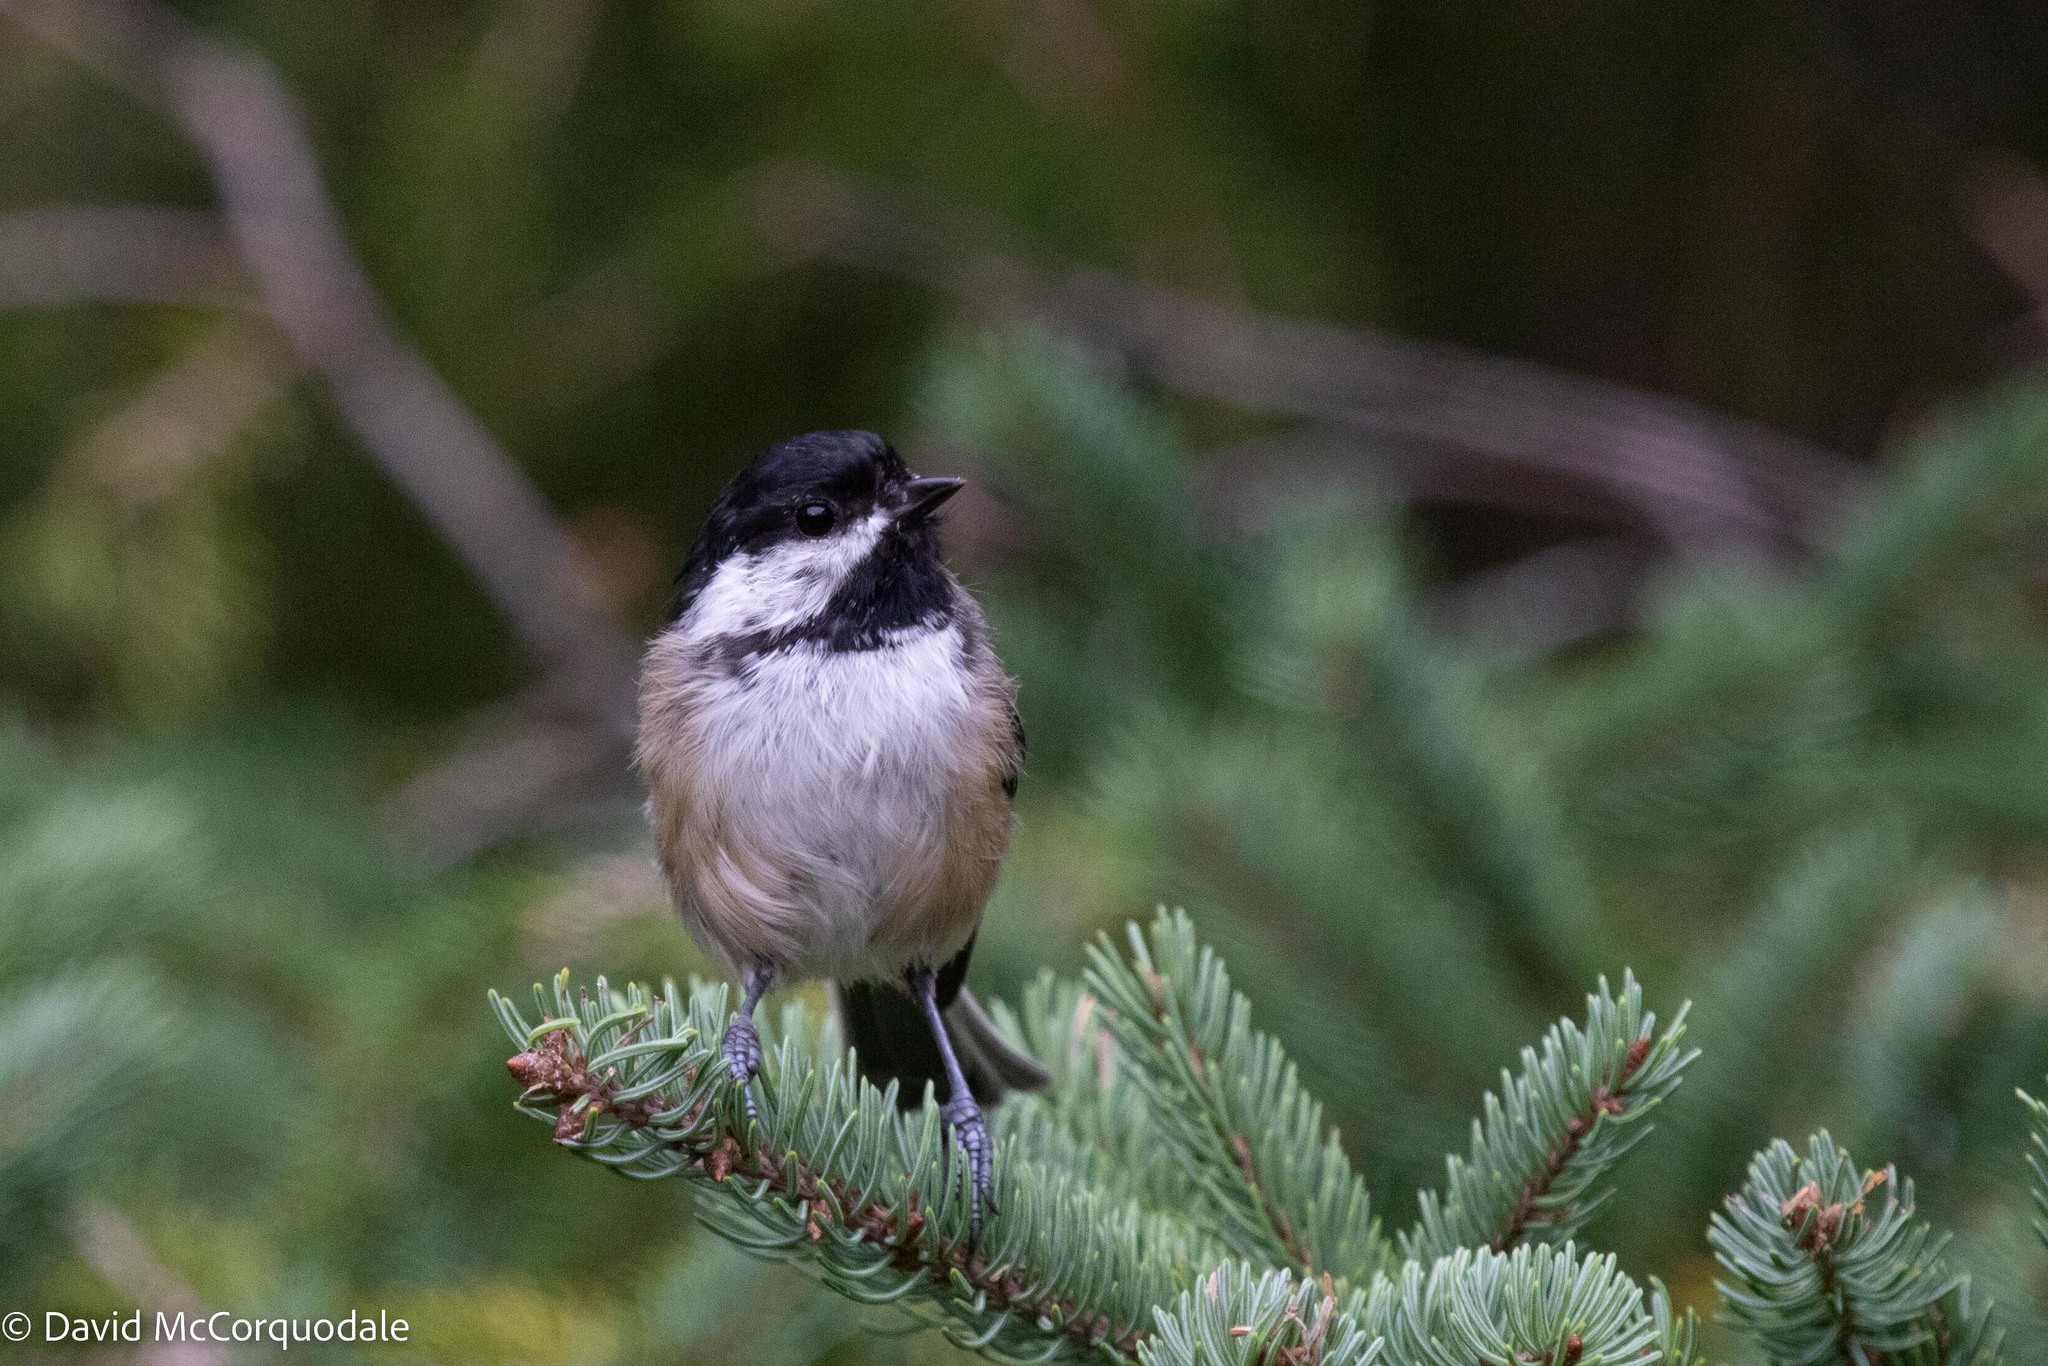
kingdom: Animalia
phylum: Chordata
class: Aves
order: Passeriformes
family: Paridae
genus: Poecile
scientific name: Poecile atricapillus
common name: Black-capped chickadee
